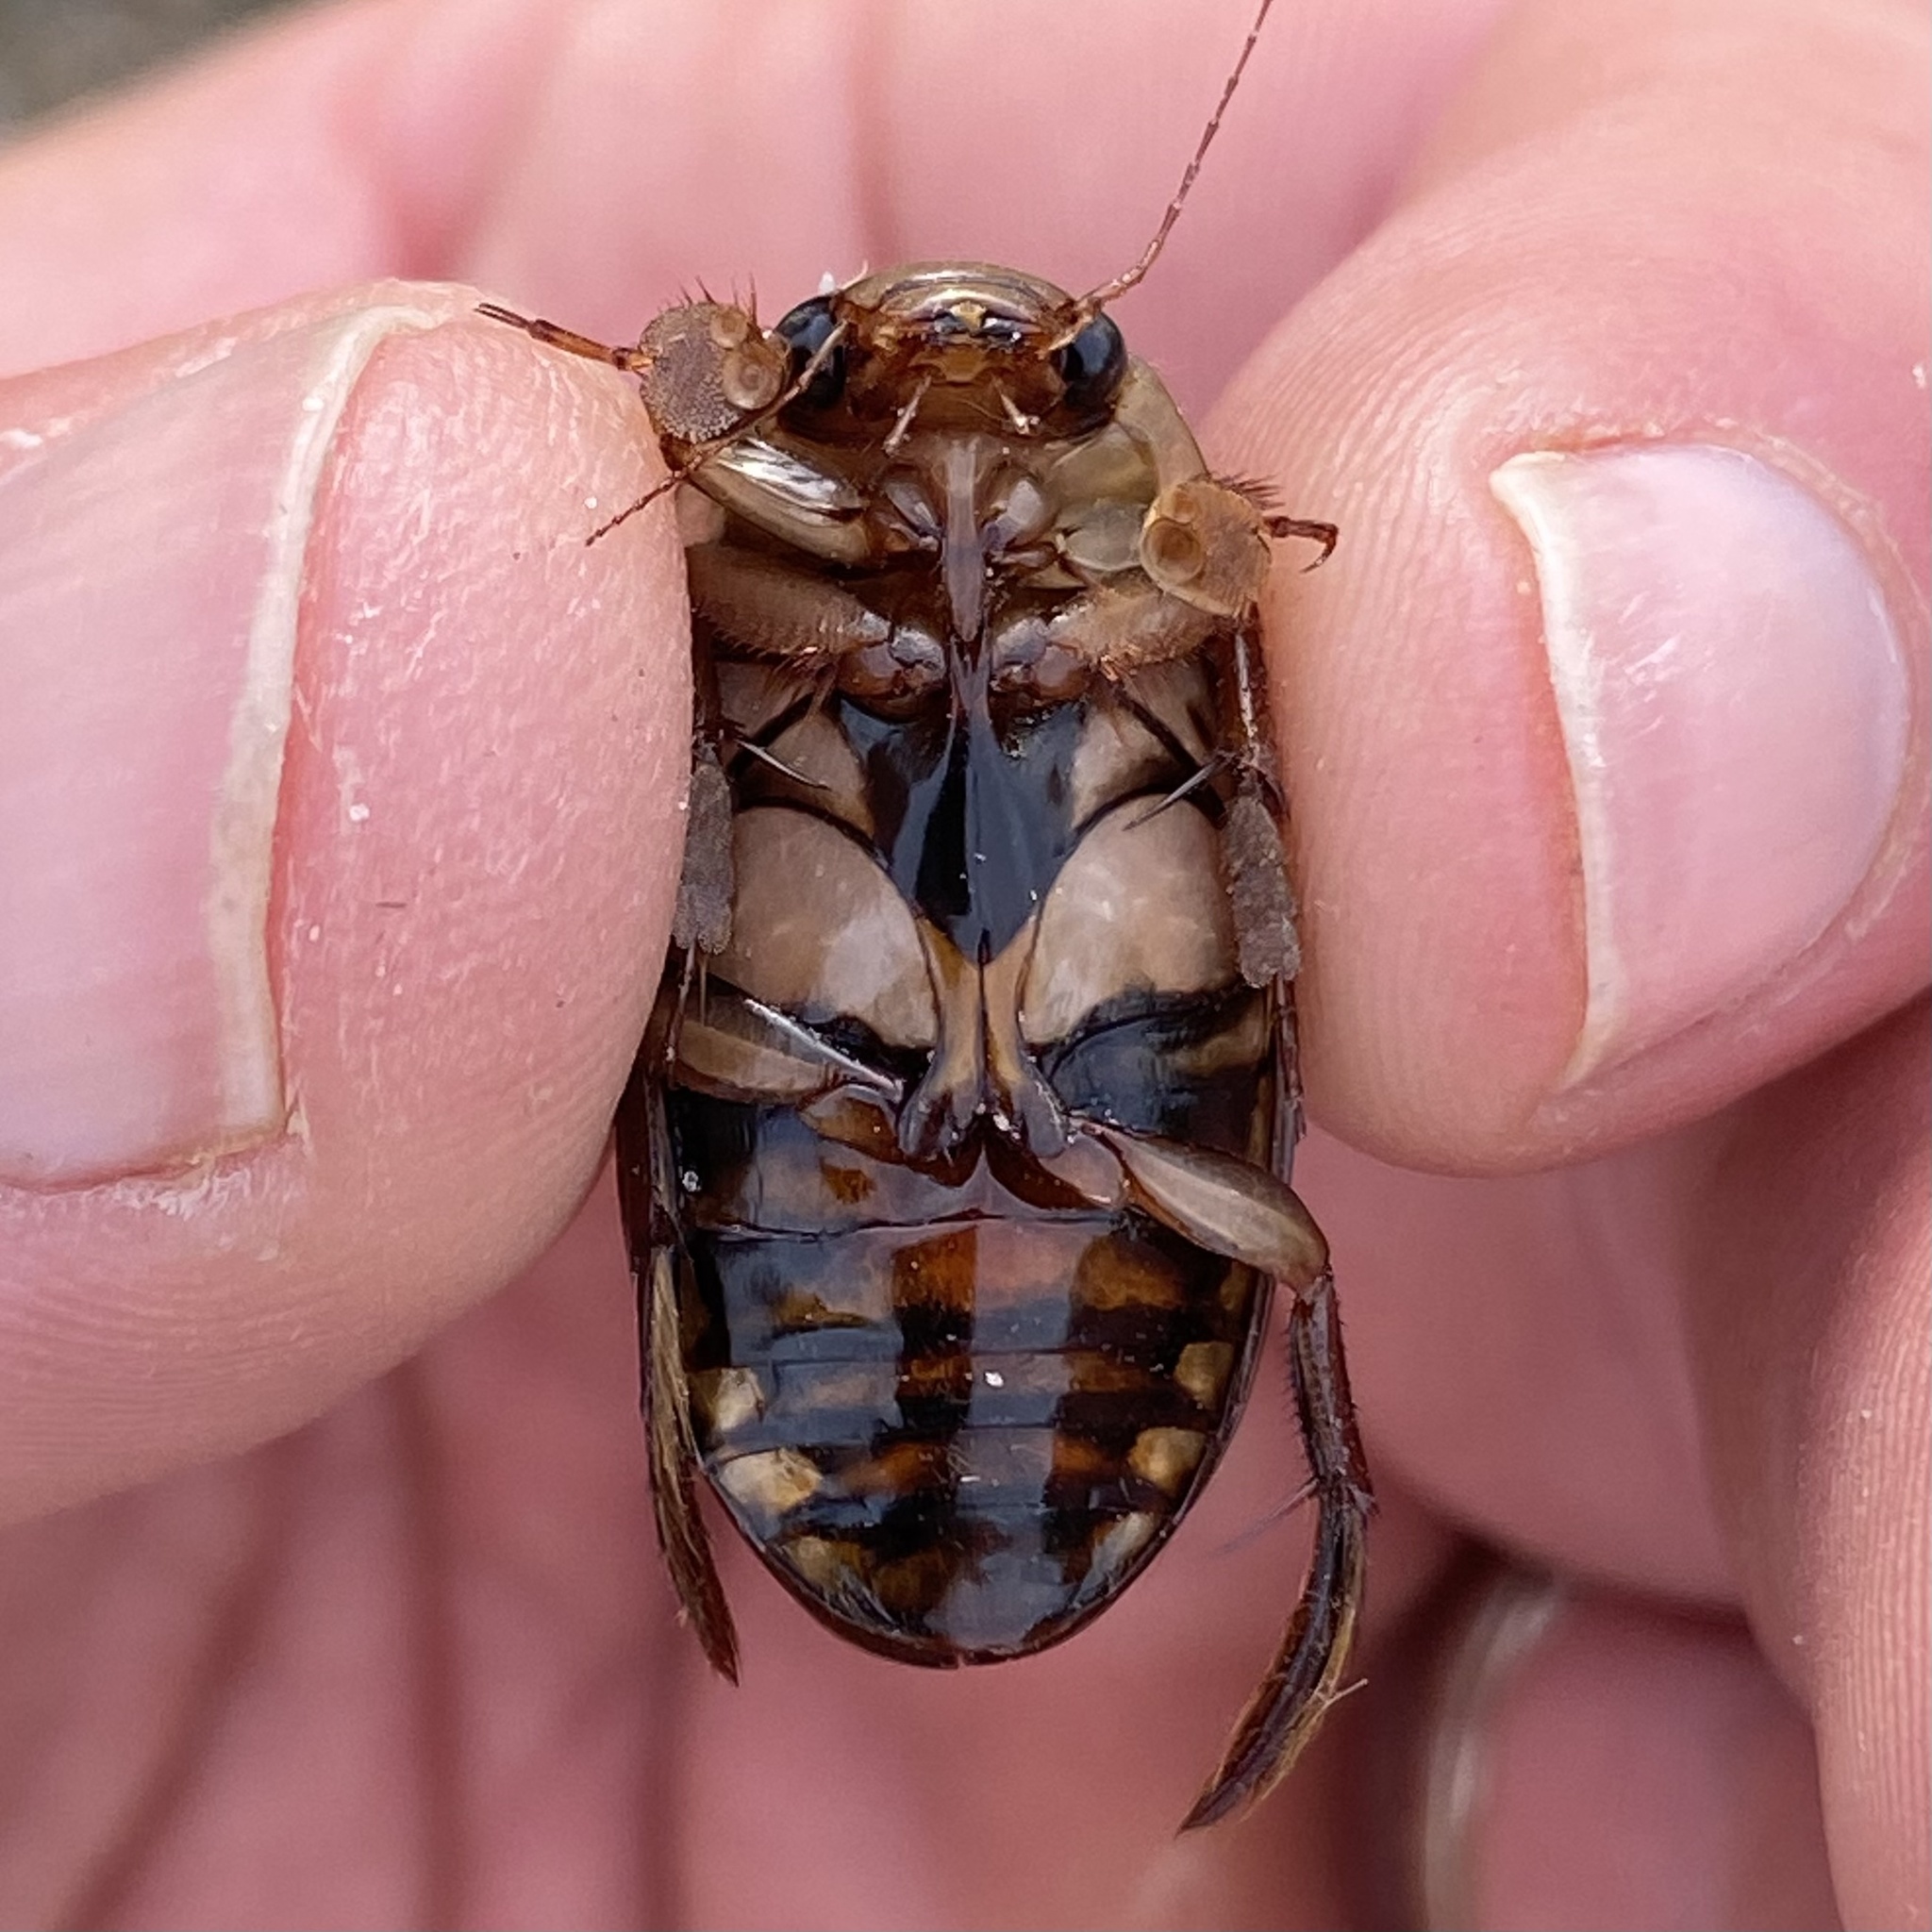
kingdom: Animalia
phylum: Arthropoda
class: Insecta
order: Coleoptera
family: Dytiscidae
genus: Dytiscus
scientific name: Dytiscus fasciventris
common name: Understriped diving beetle
